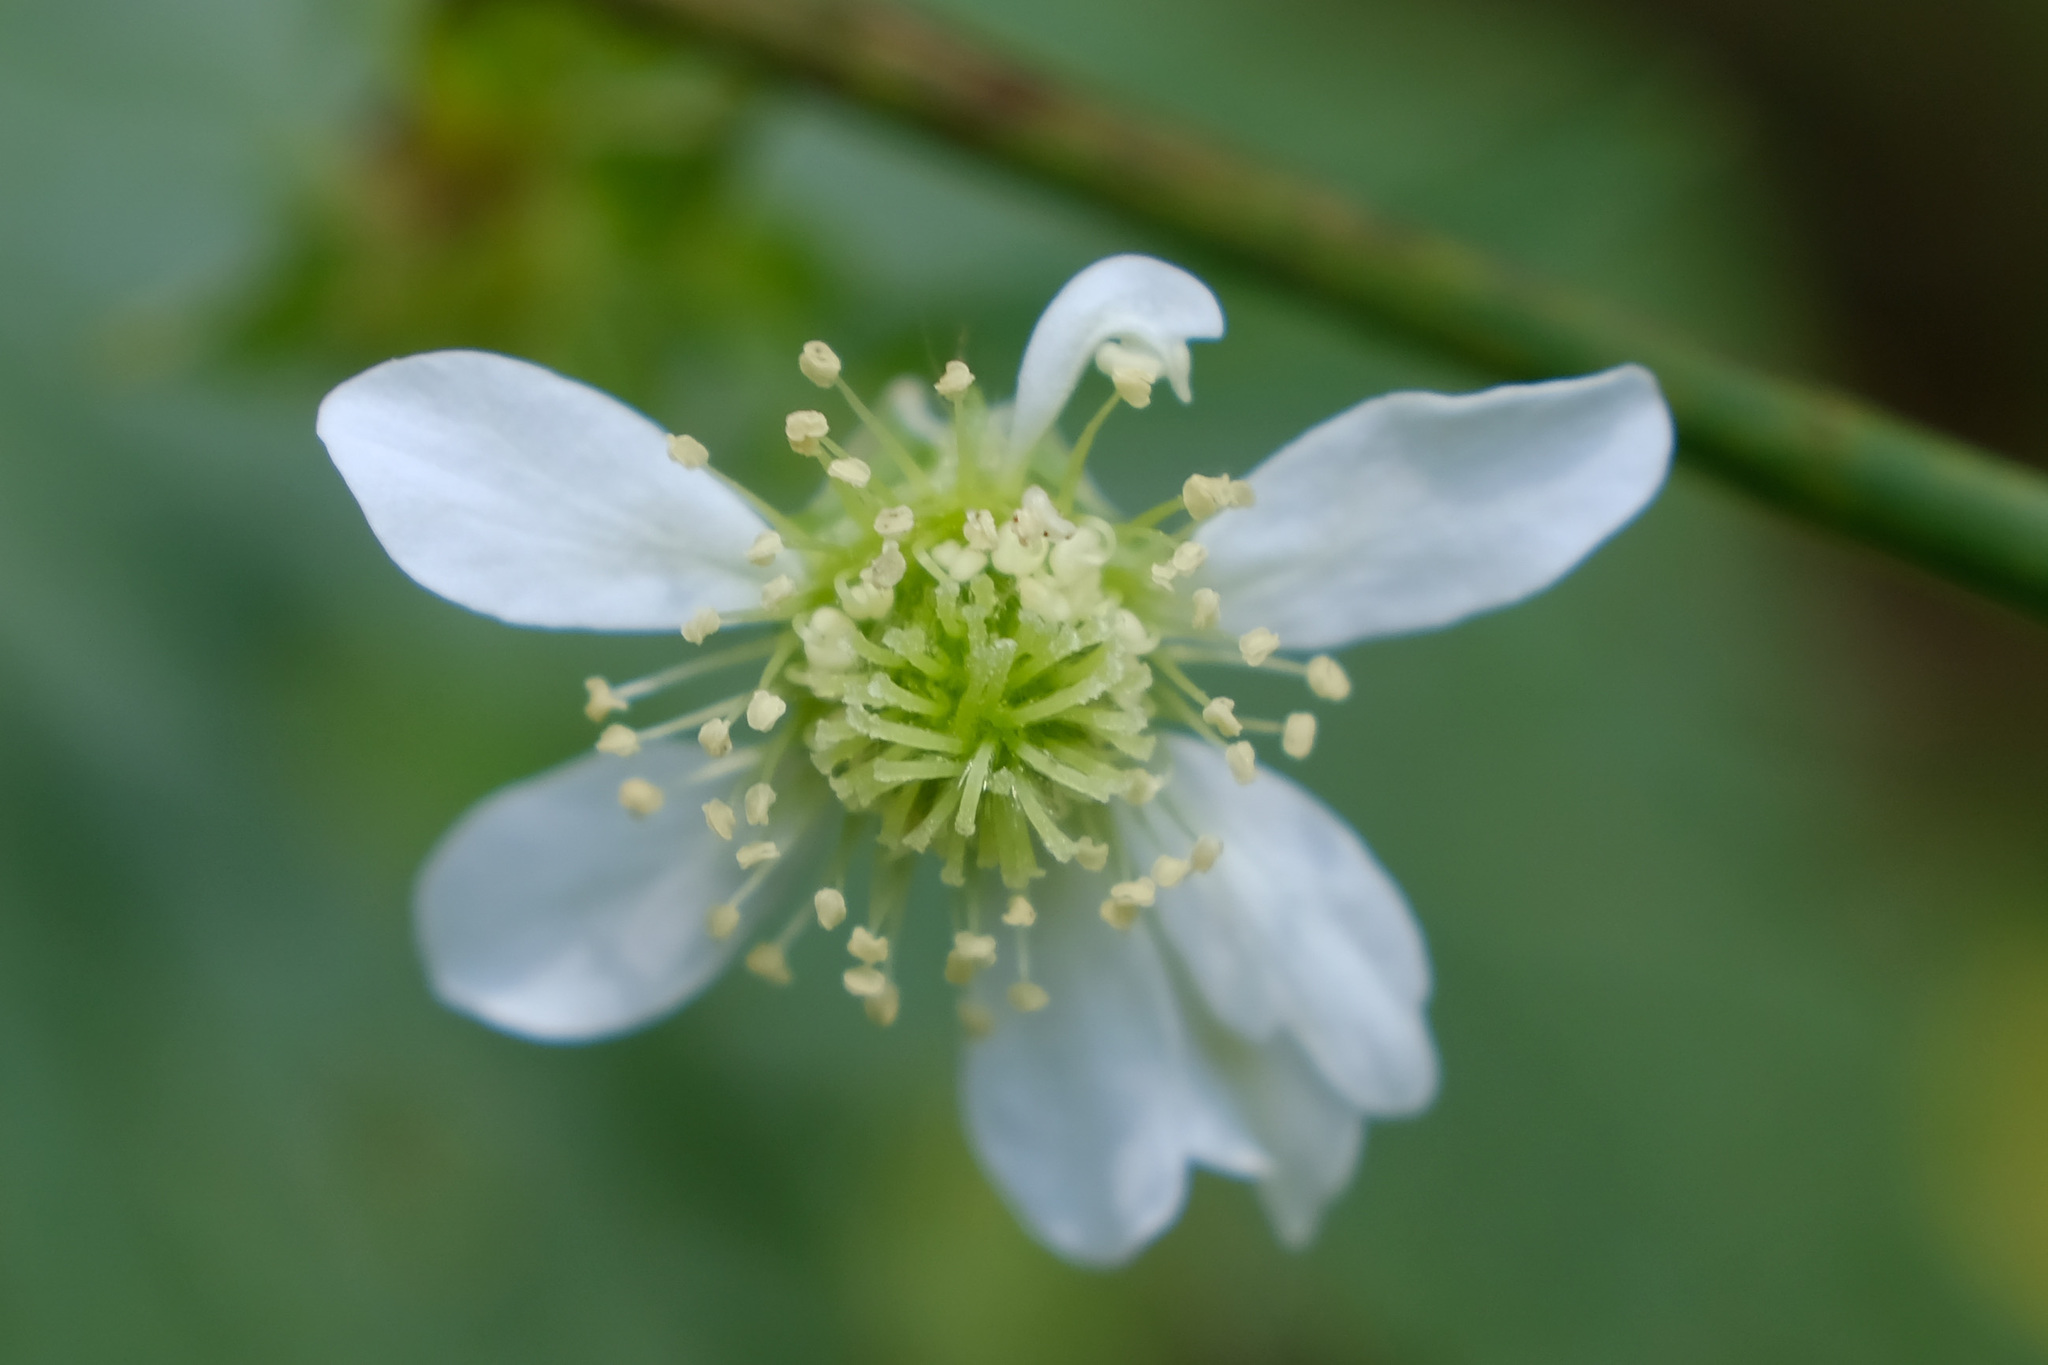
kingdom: Plantae
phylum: Tracheophyta
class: Magnoliopsida
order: Rosales
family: Rosaceae
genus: Geum
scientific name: Geum canadense
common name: White avens
